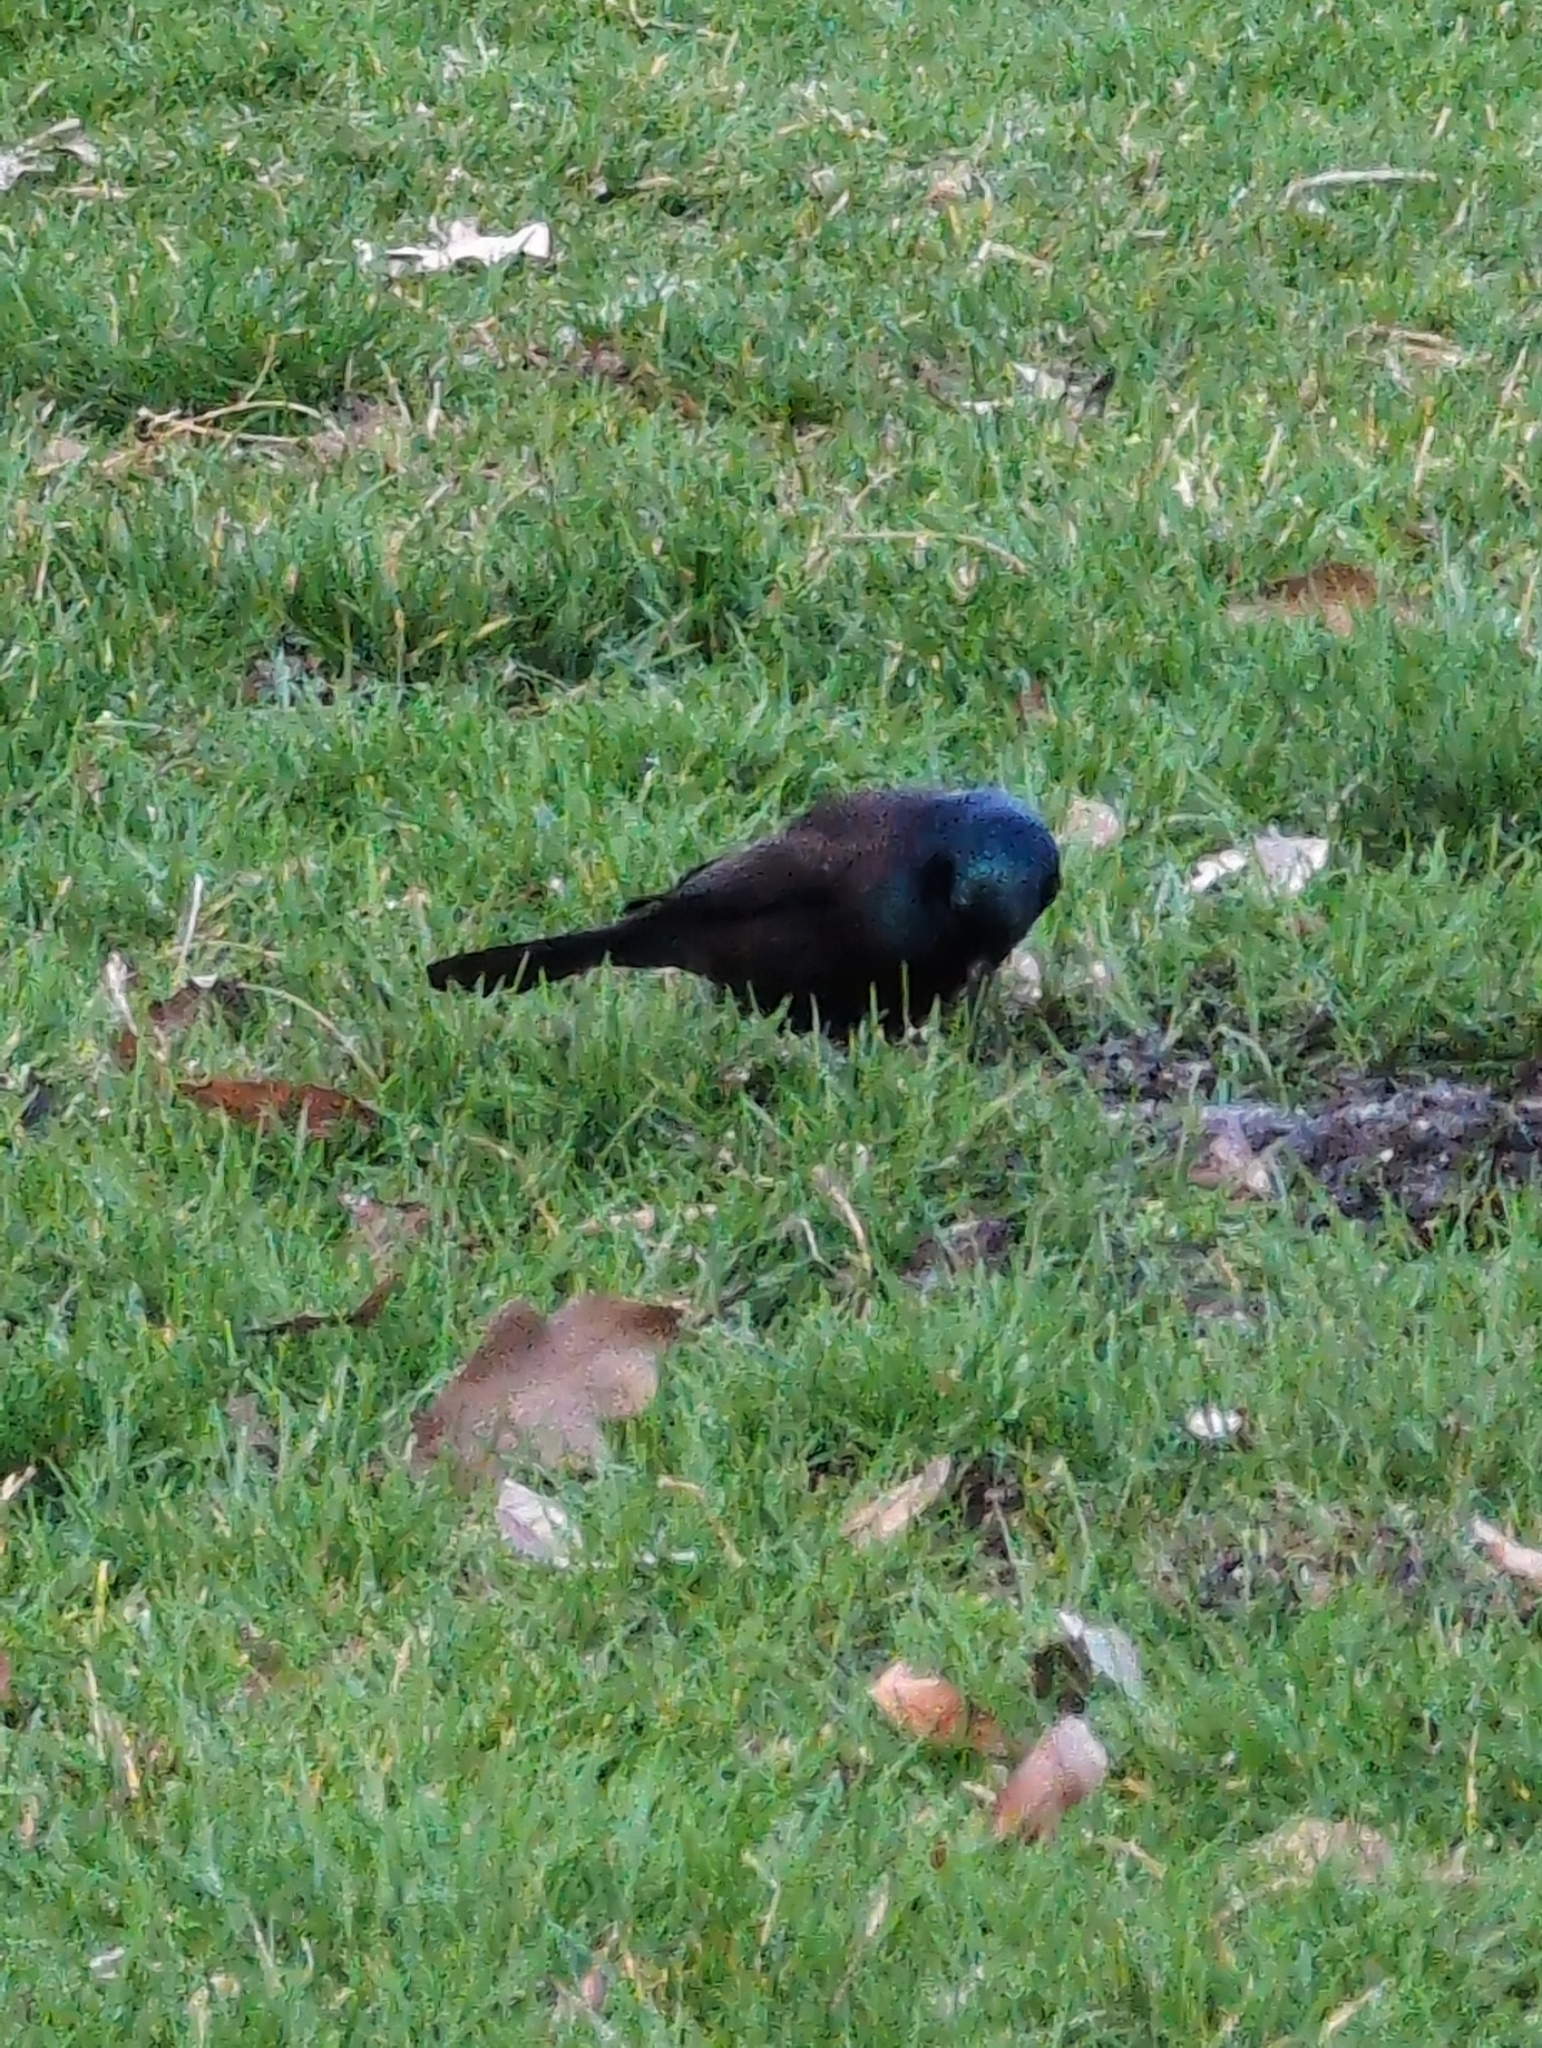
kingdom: Animalia
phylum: Chordata
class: Aves
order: Passeriformes
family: Icteridae
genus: Quiscalus
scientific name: Quiscalus quiscula
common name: Common grackle
